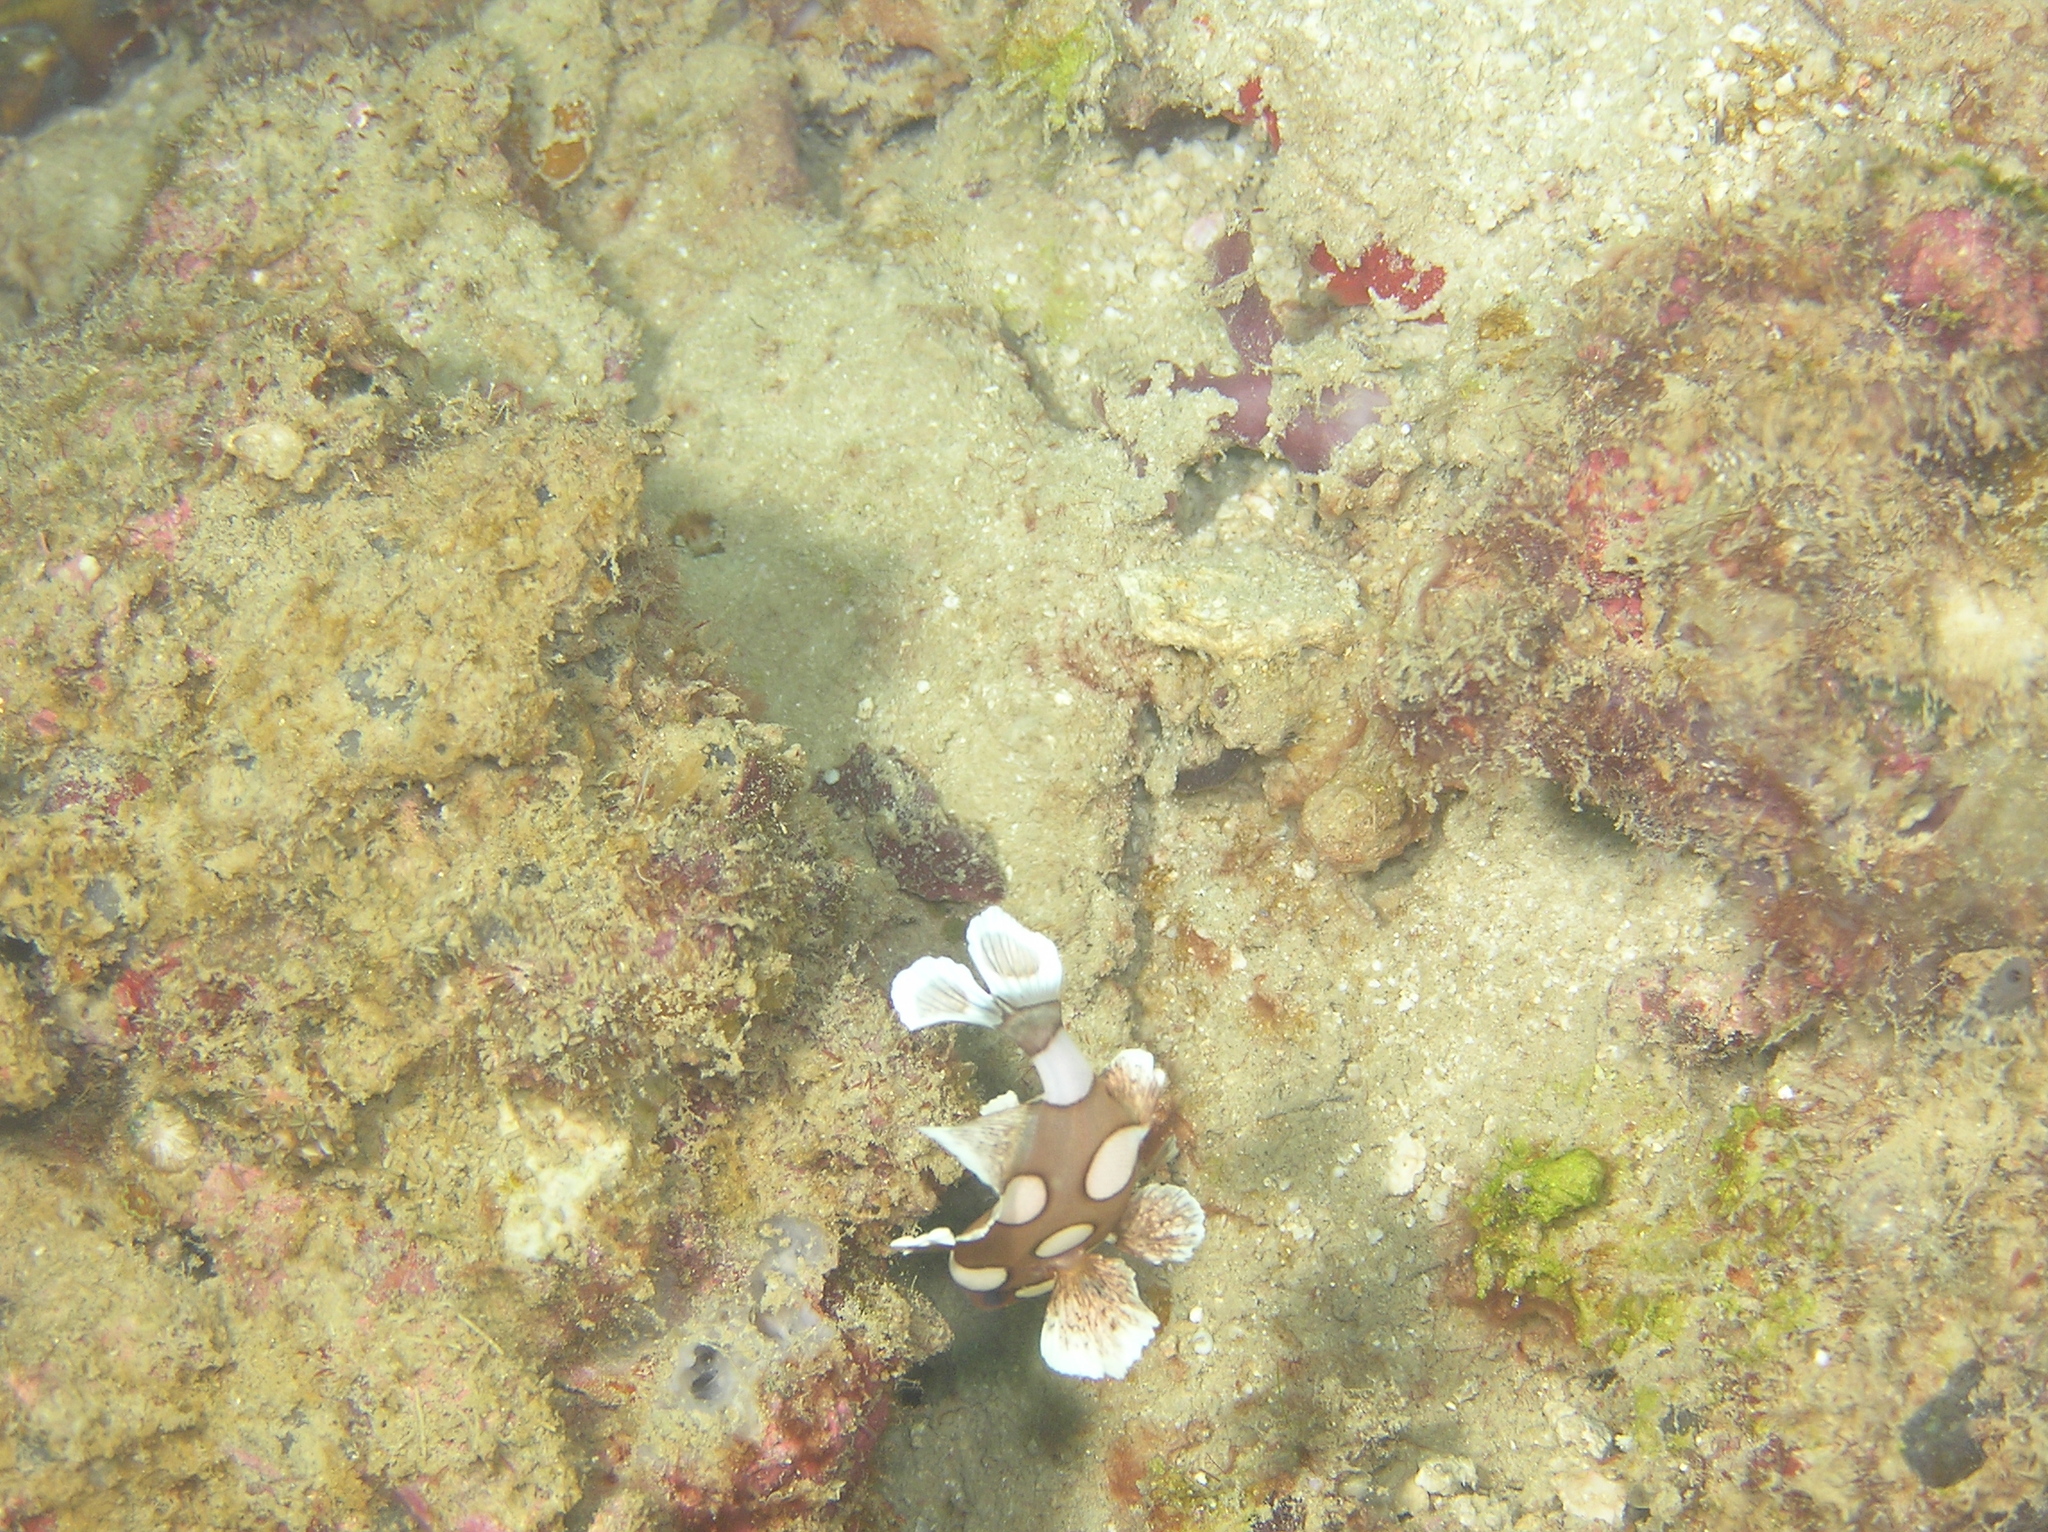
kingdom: Animalia
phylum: Chordata
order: Perciformes
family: Haemulidae
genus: Plectorhinchus
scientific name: Plectorhinchus chaetodonoides
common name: Harlequin sweetlips
